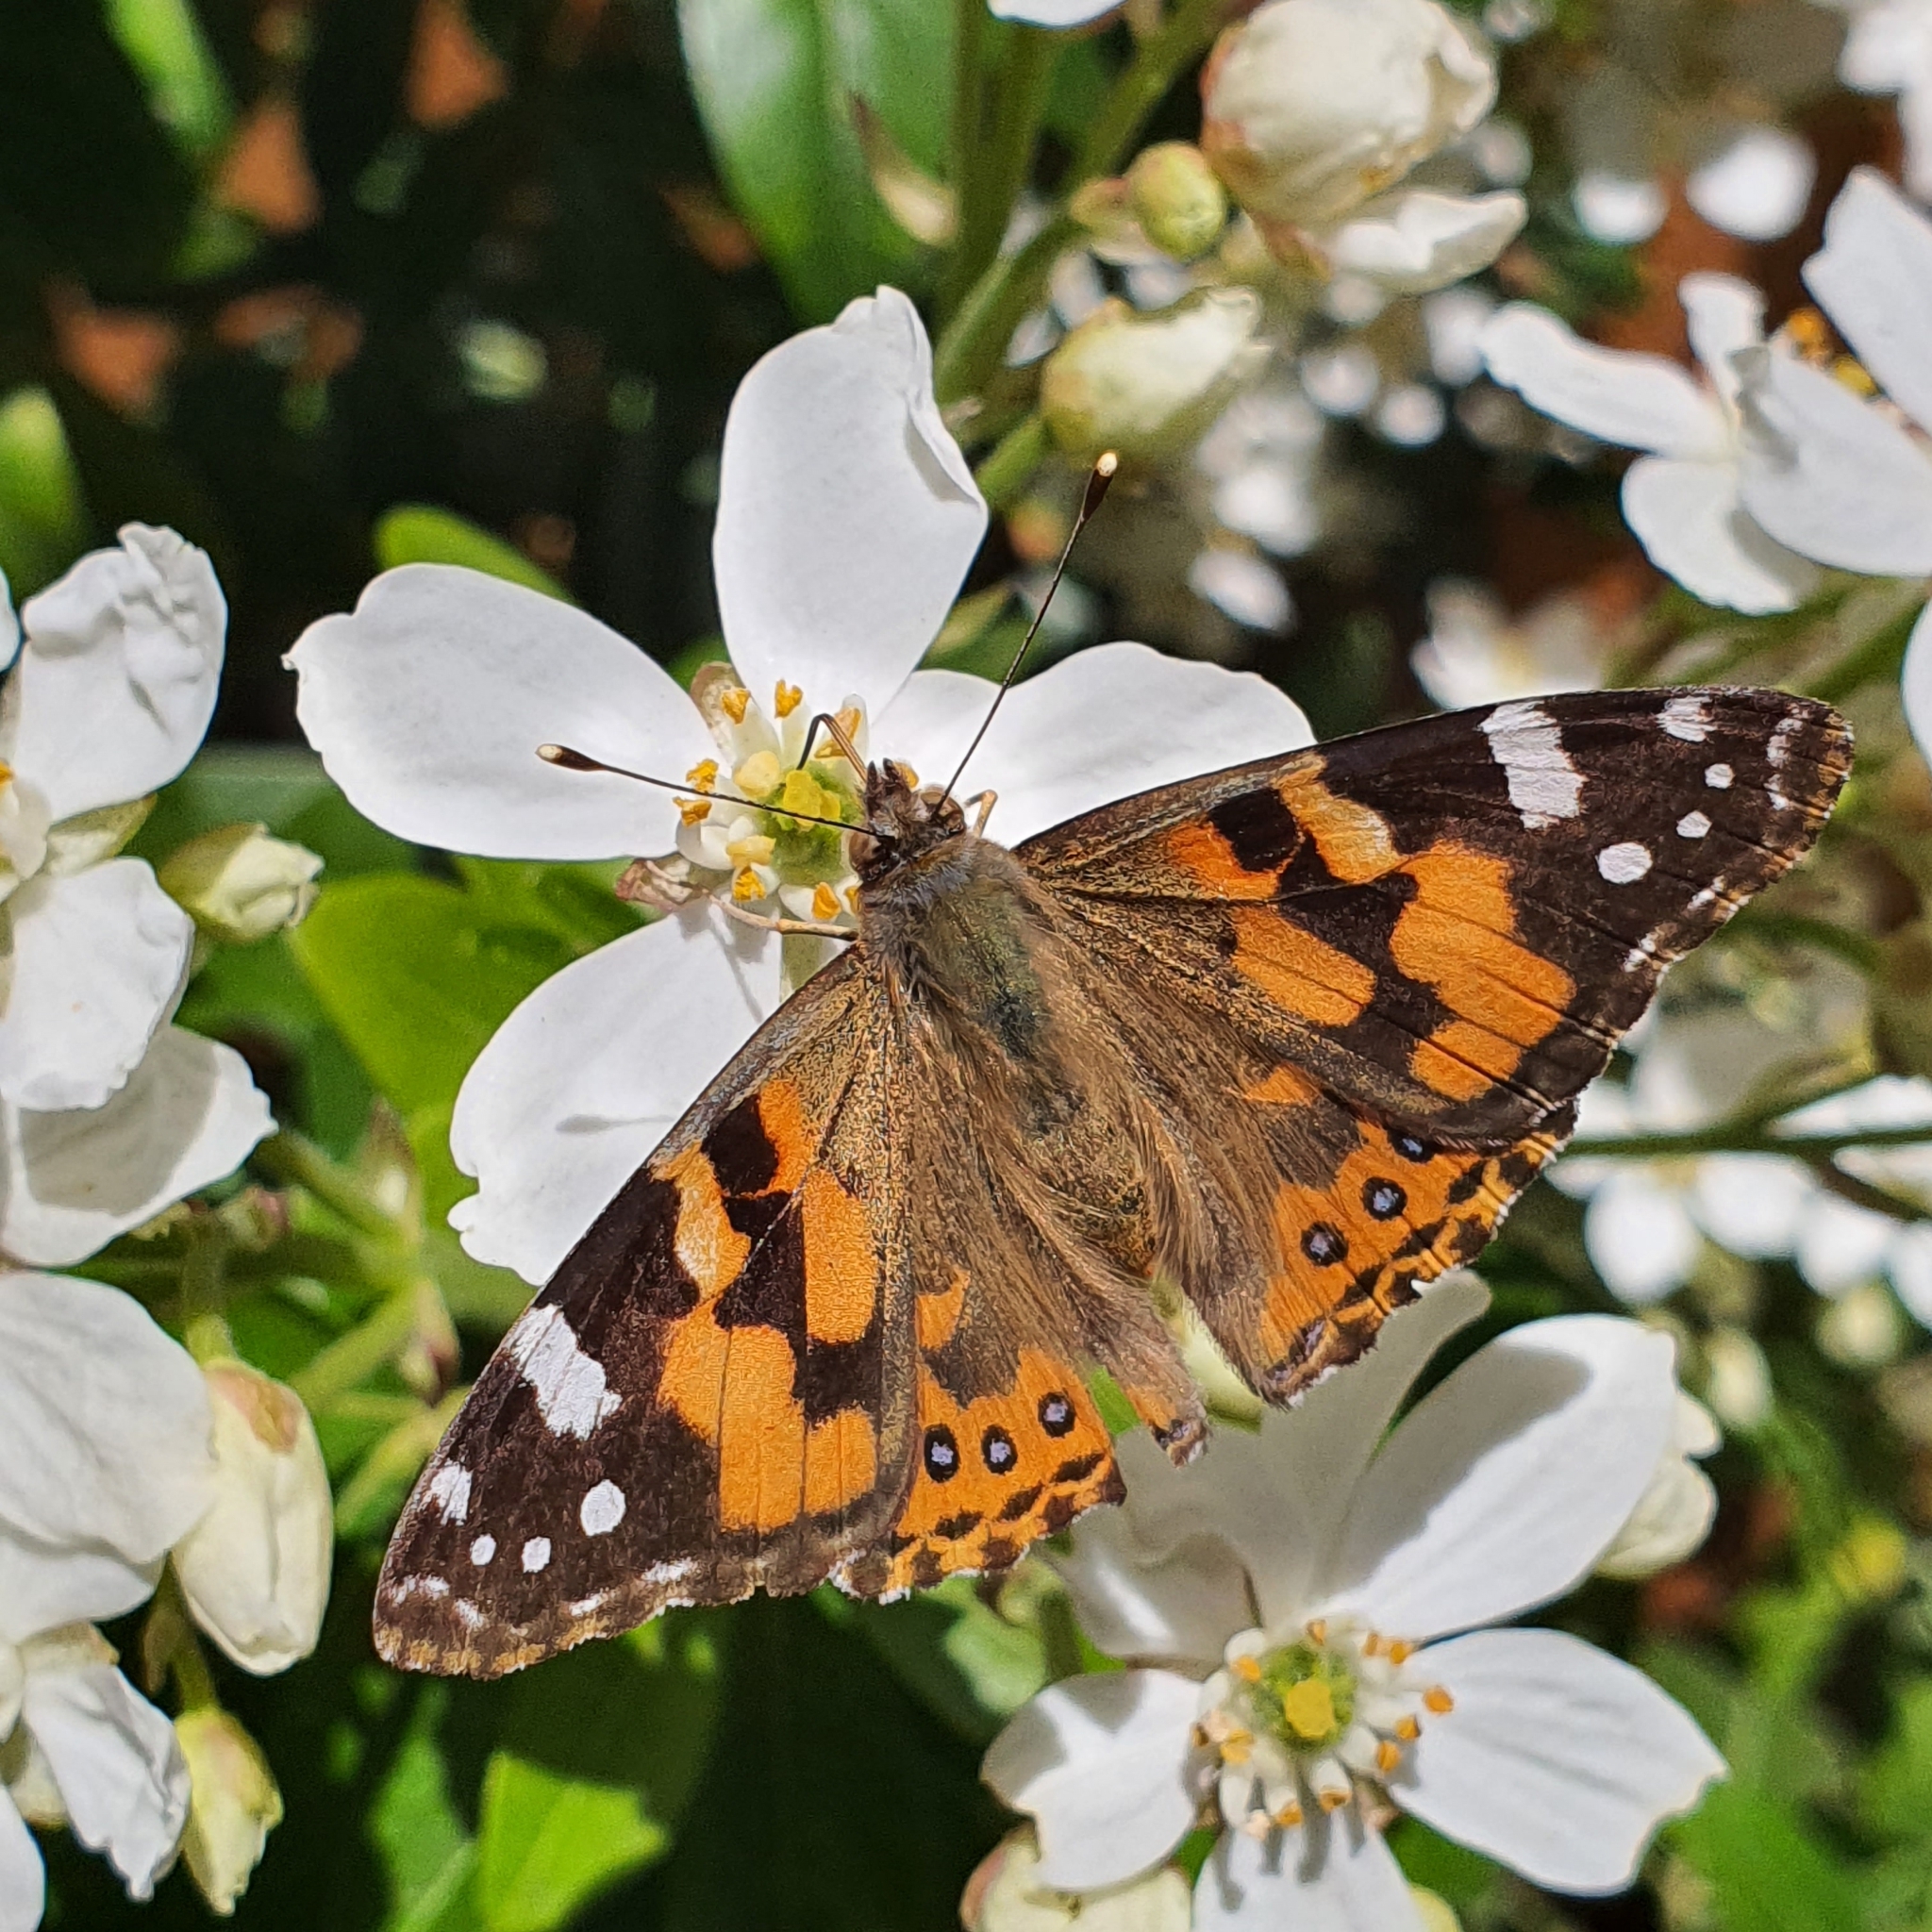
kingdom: Animalia
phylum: Arthropoda
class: Insecta
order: Lepidoptera
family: Nymphalidae
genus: Vanessa
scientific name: Vanessa kershawi
